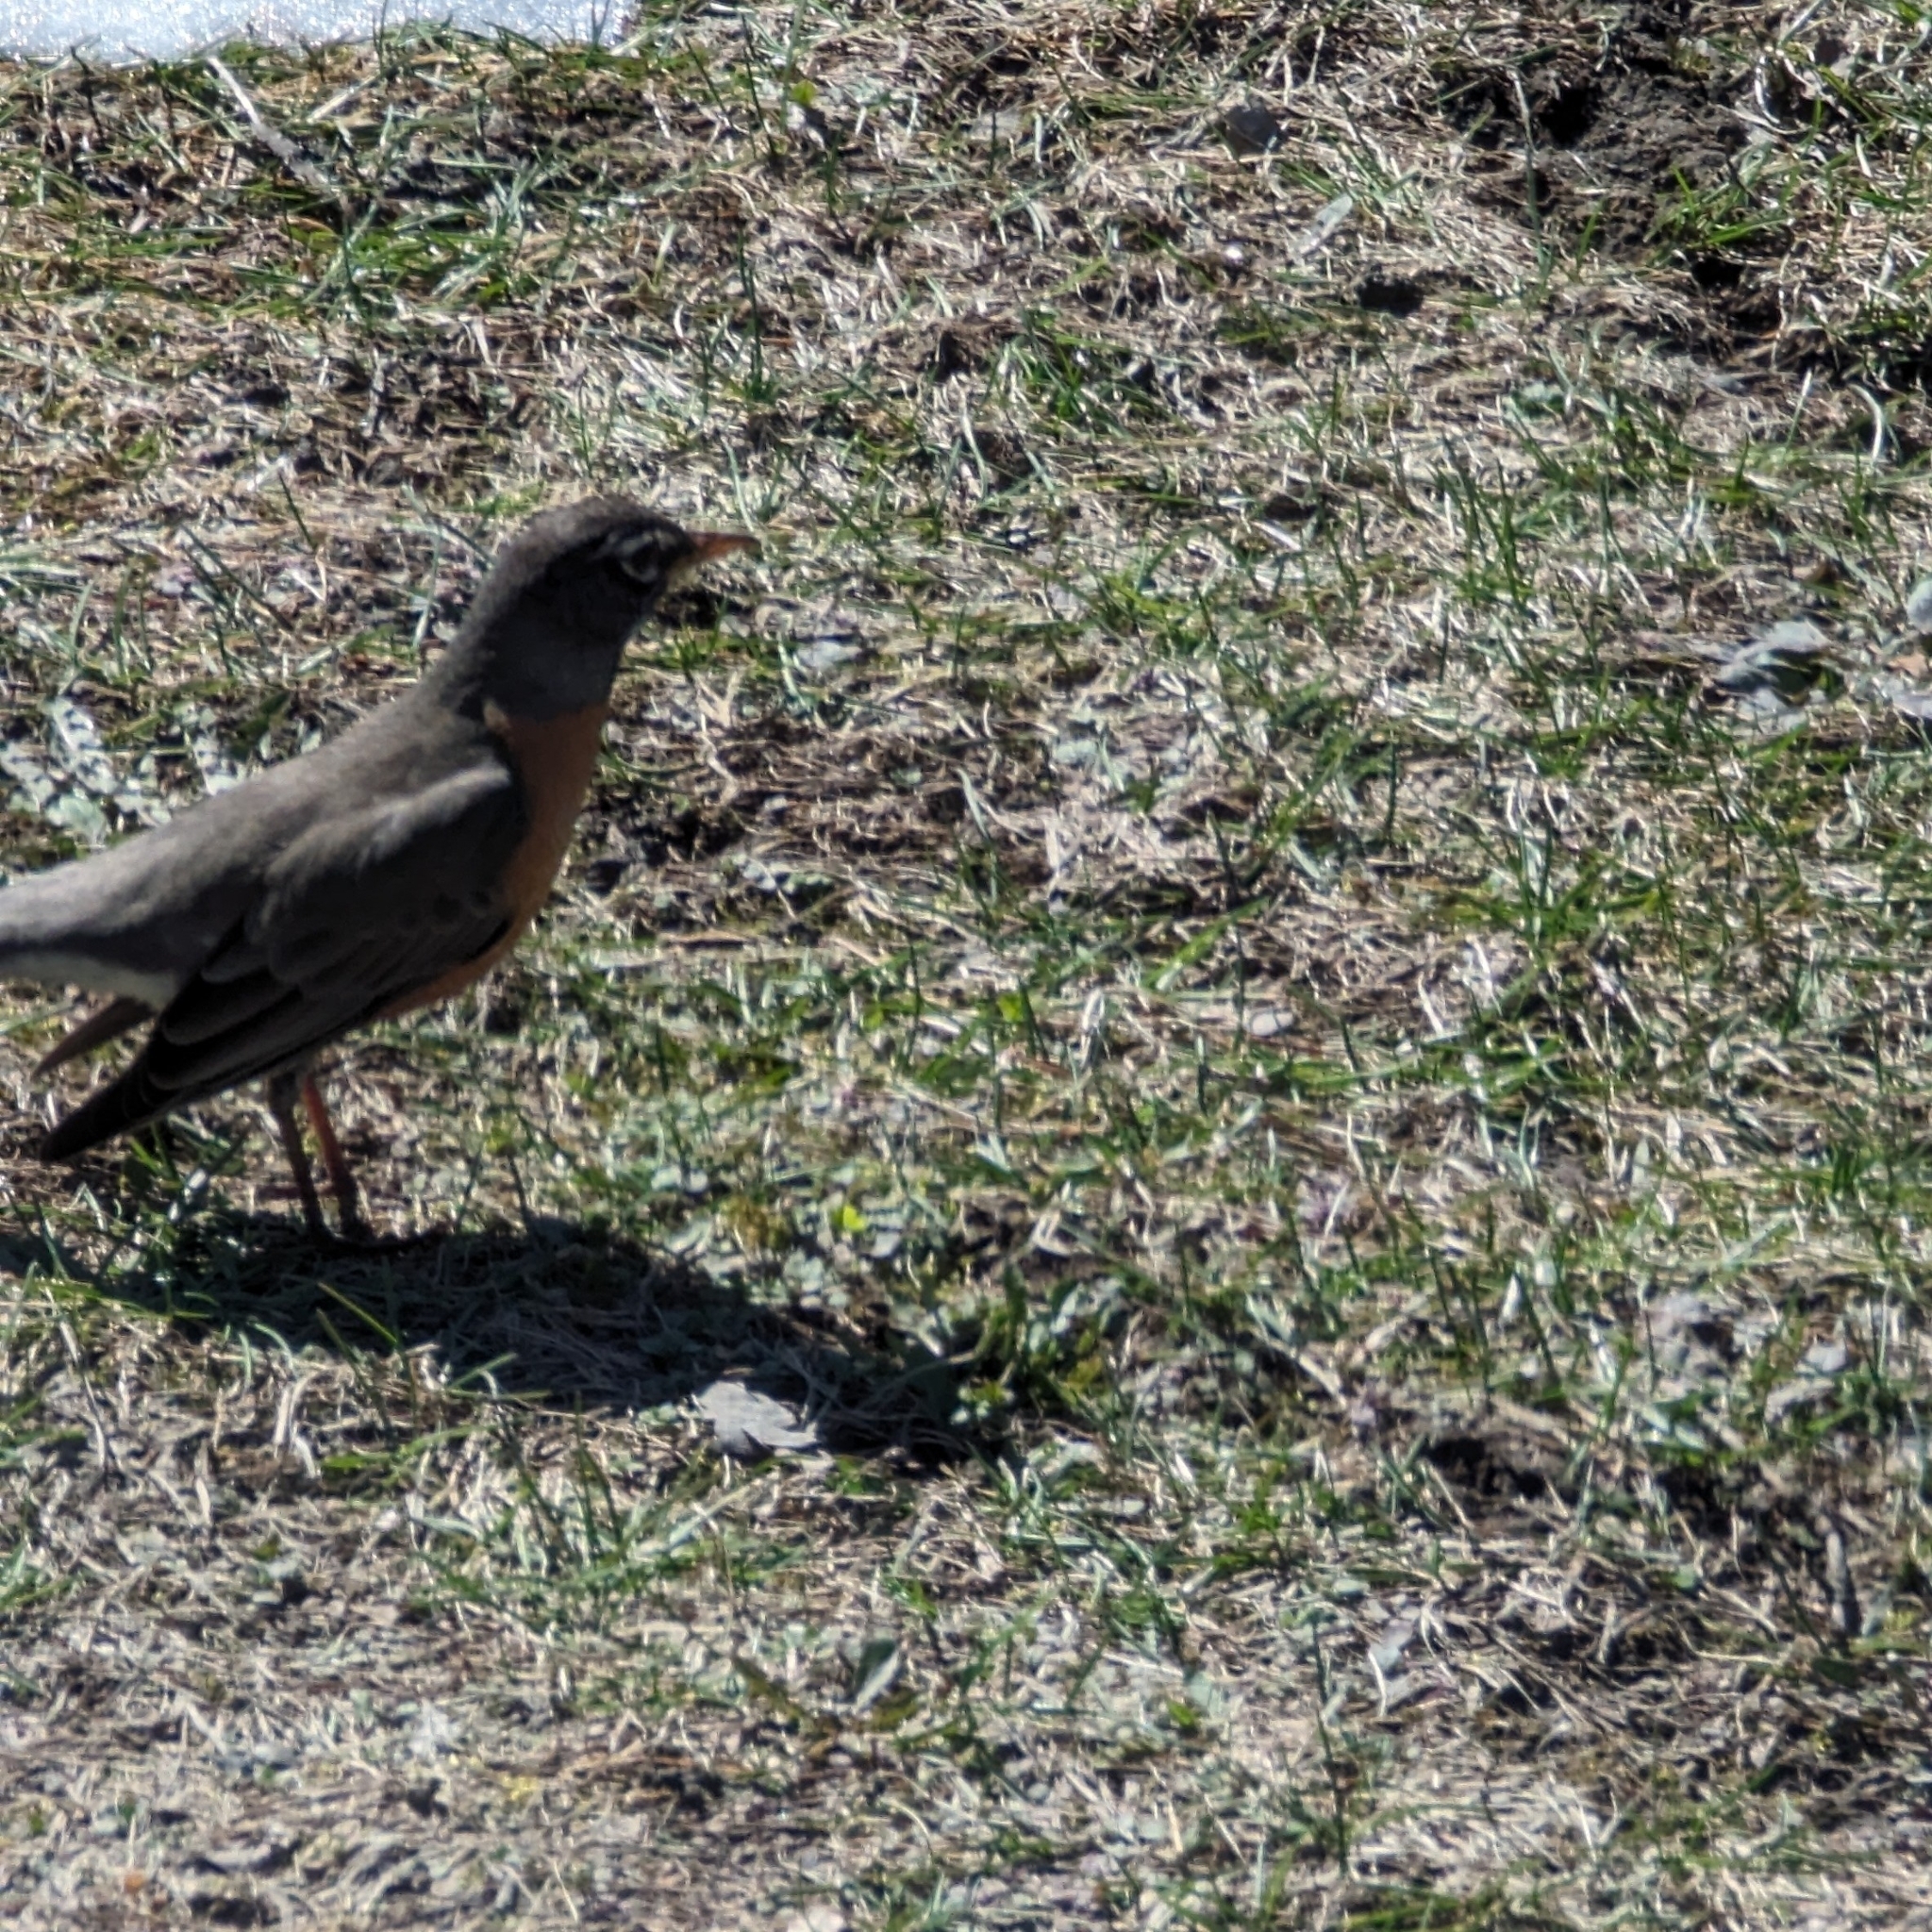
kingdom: Animalia
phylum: Chordata
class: Aves
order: Passeriformes
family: Turdidae
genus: Turdus
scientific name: Turdus migratorius
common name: American robin
